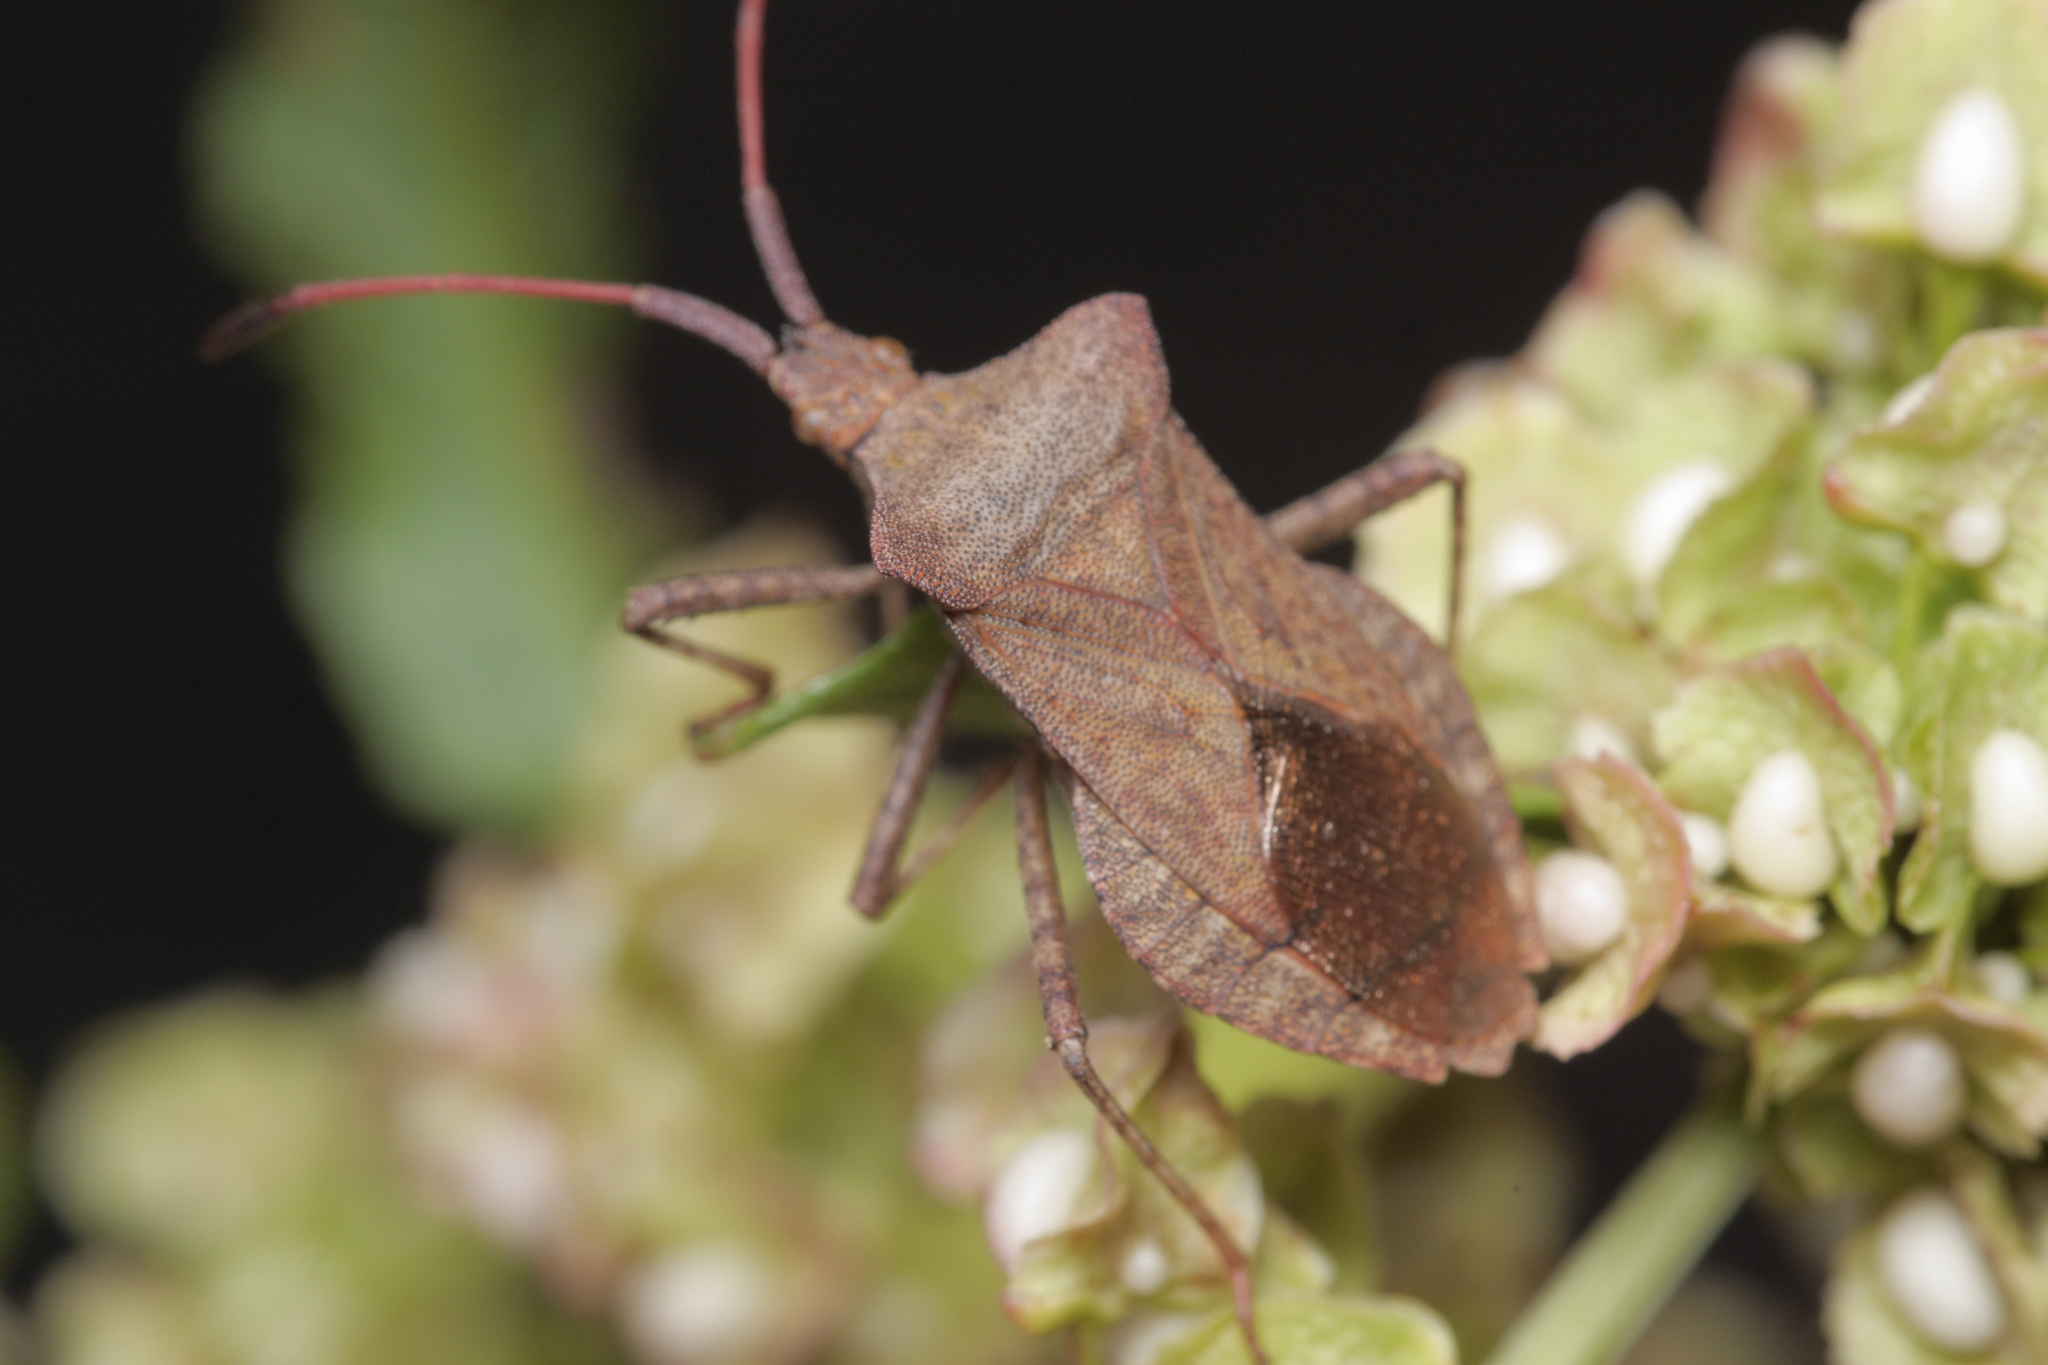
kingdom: Animalia
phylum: Arthropoda
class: Insecta
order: Hemiptera
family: Coreidae
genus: Coreus
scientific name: Coreus marginatus
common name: Dock bug
